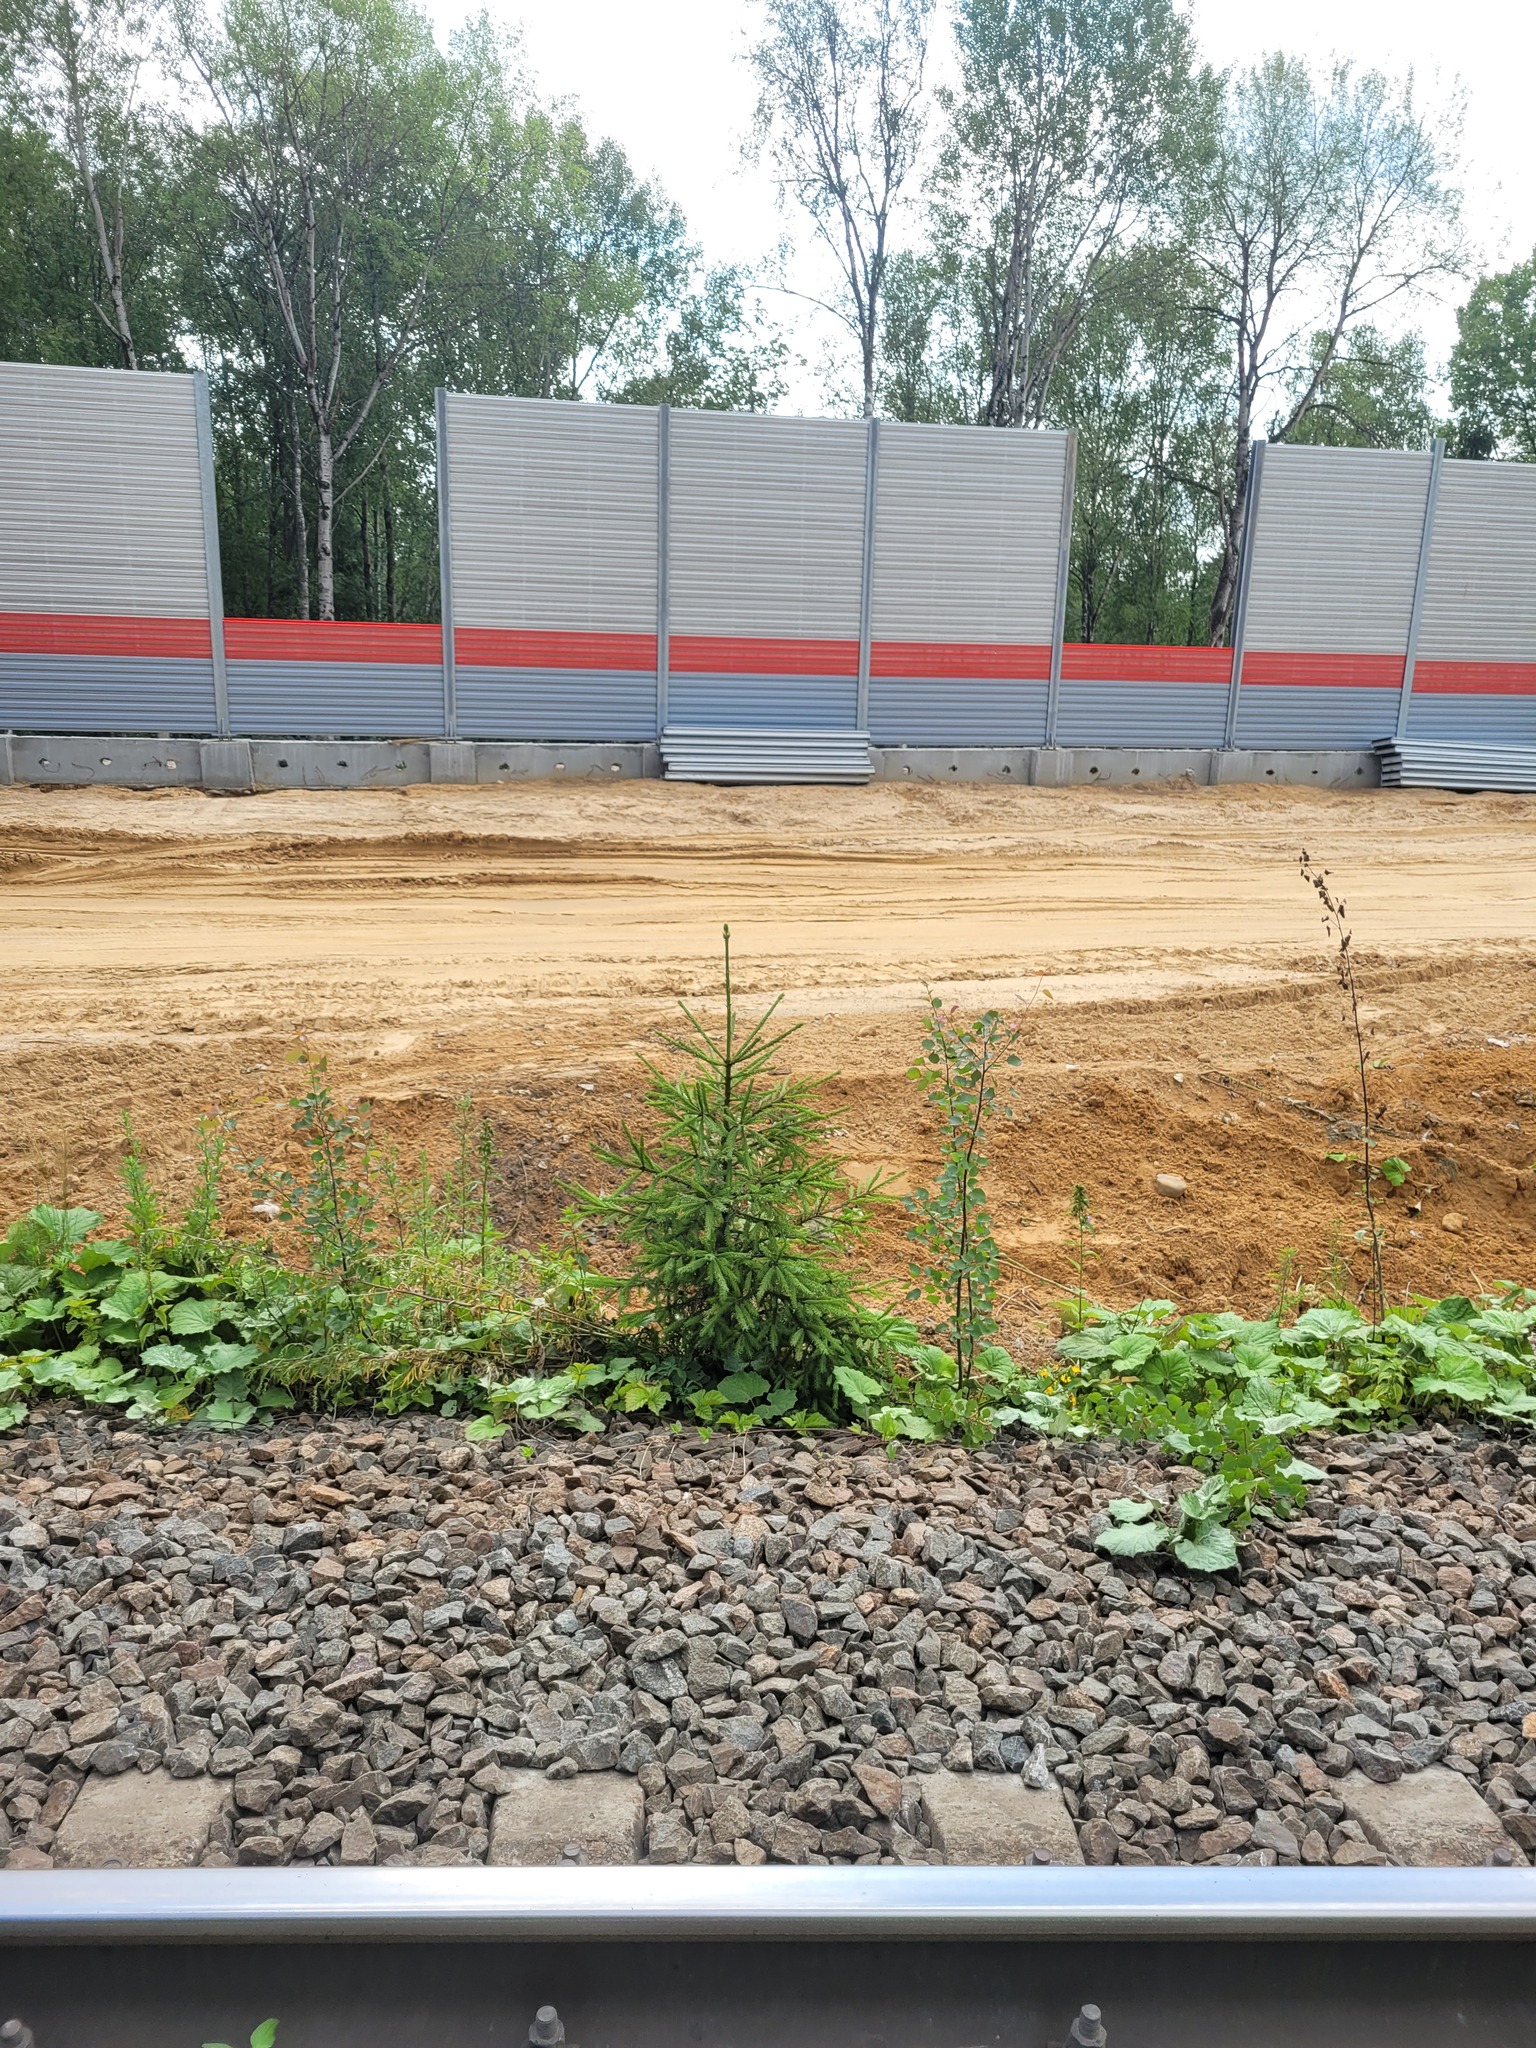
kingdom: Plantae
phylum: Tracheophyta
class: Pinopsida
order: Pinales
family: Pinaceae
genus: Picea
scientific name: Picea abies
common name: Norway spruce
